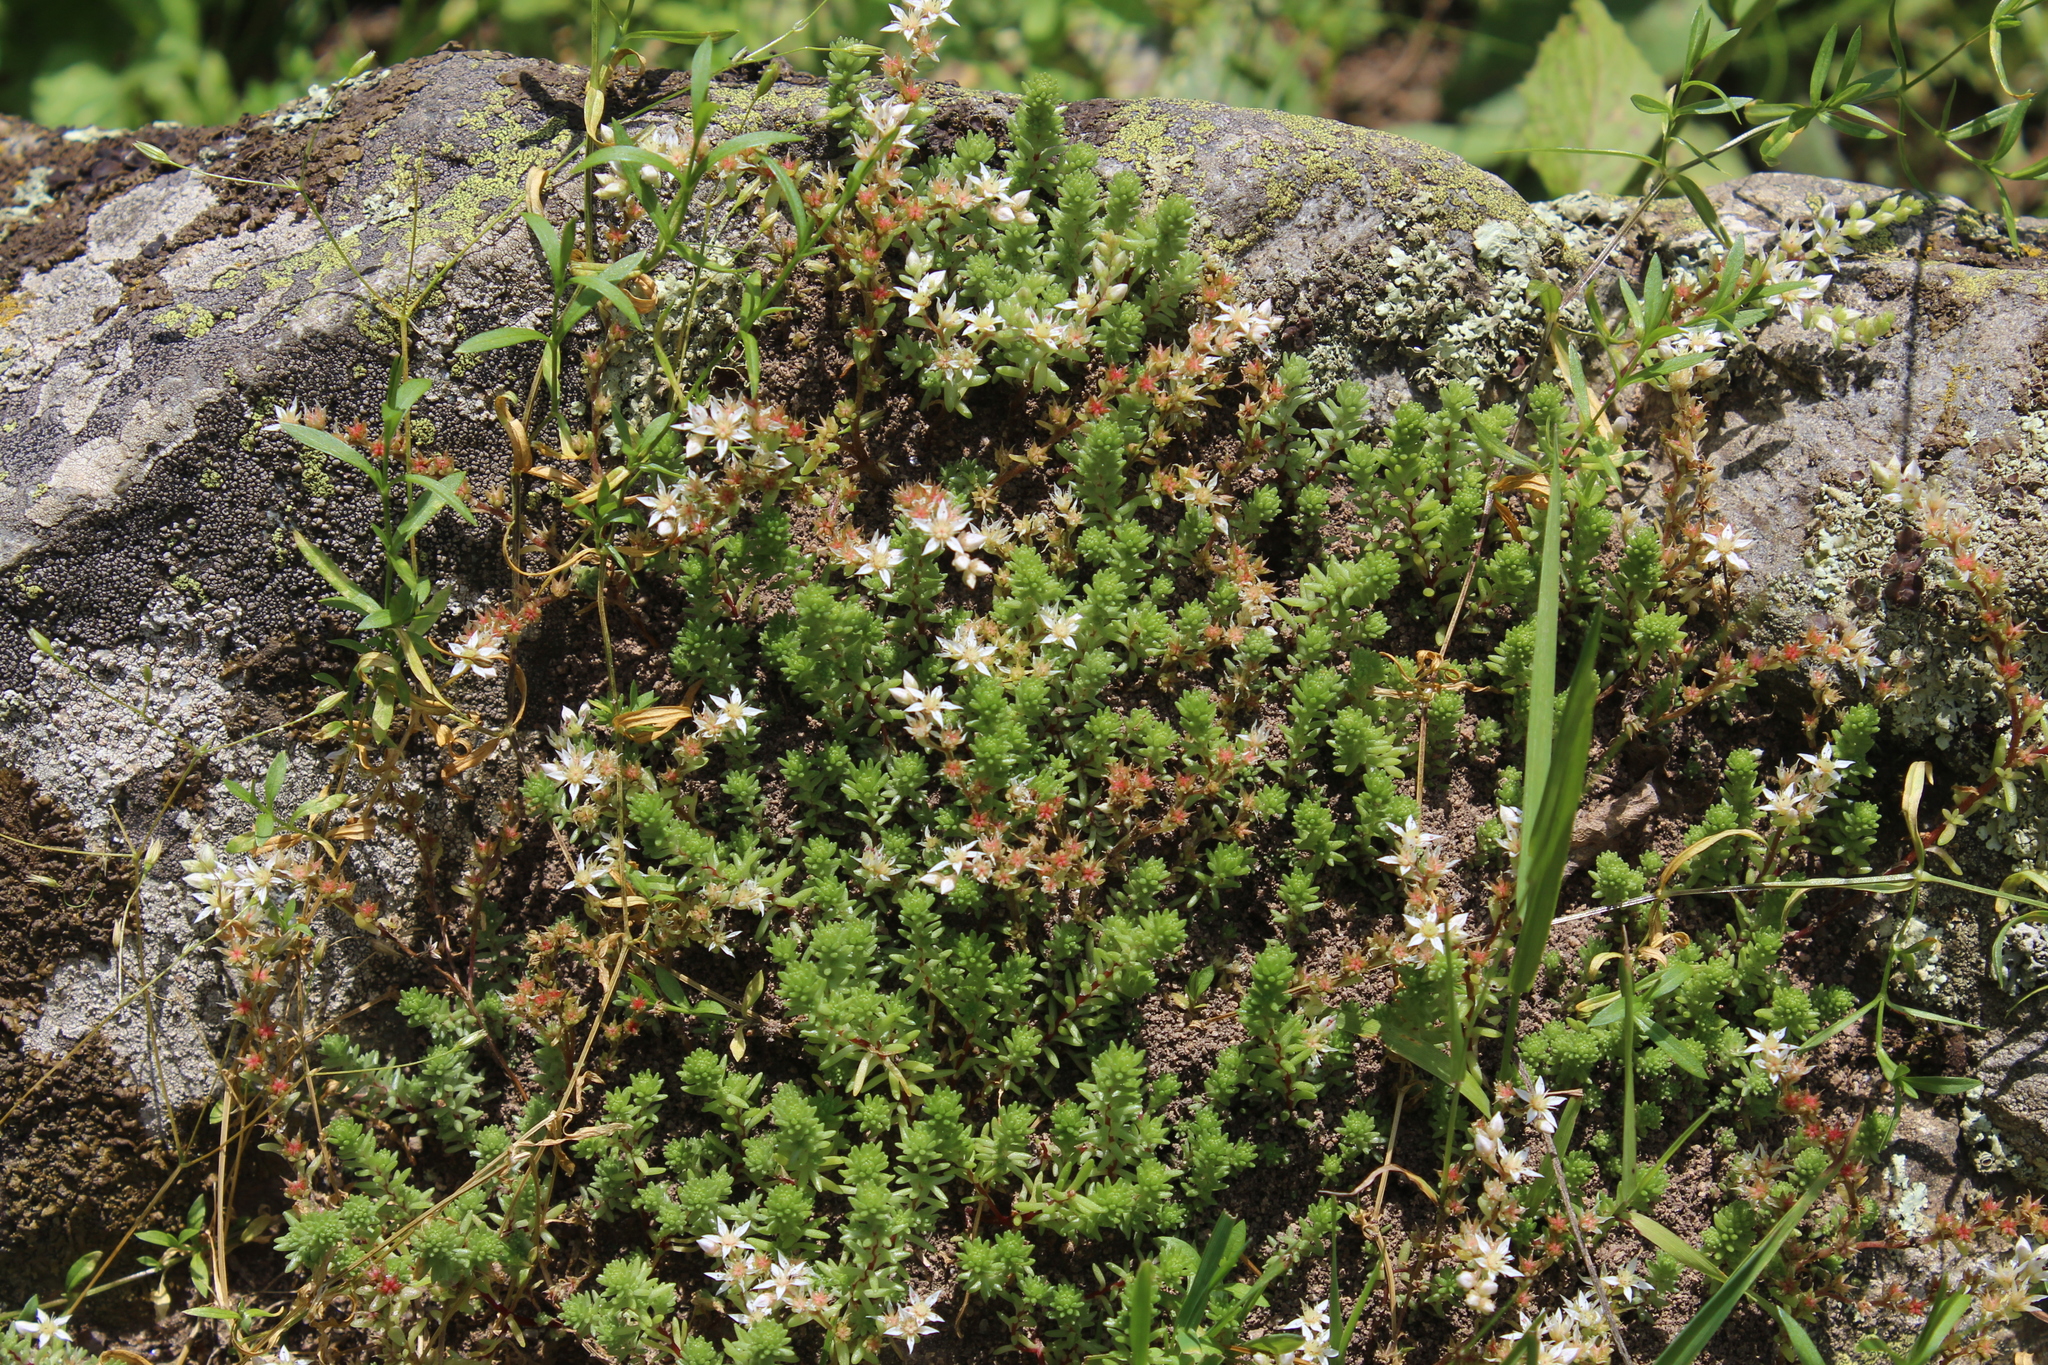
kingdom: Plantae
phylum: Tracheophyta
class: Magnoliopsida
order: Saxifragales
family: Crassulaceae
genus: Sedum
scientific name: Sedum gracile
